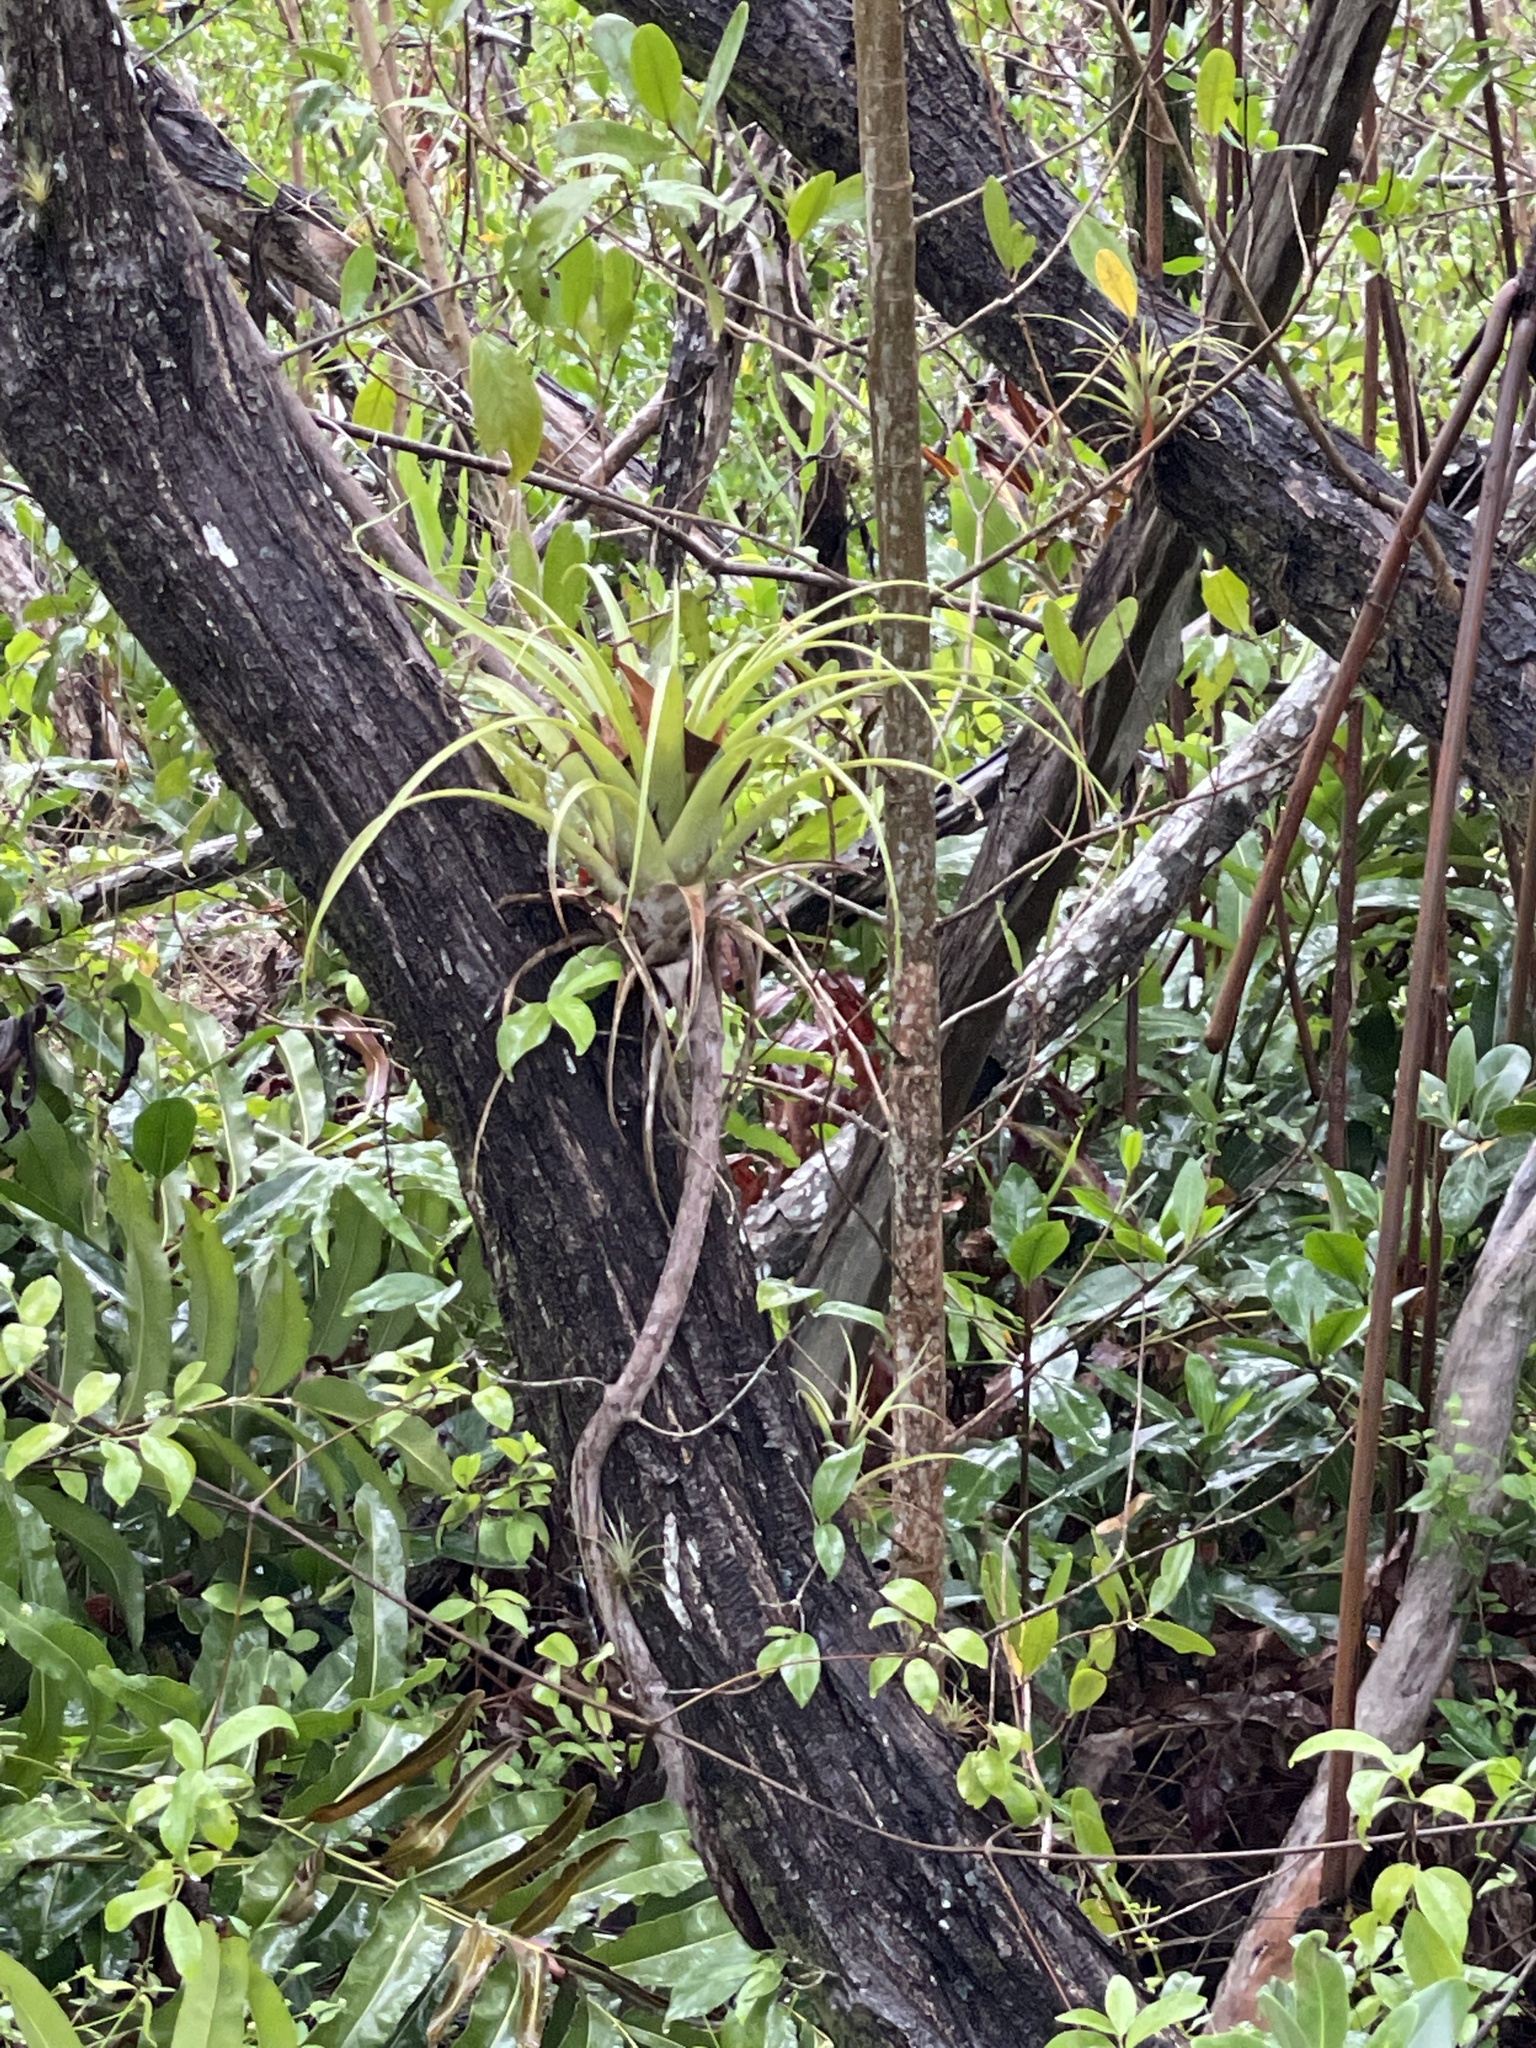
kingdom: Plantae
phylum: Tracheophyta
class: Liliopsida
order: Poales
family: Bromeliaceae
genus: Tillandsia
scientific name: Tillandsia utriculata
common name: Wild pine
